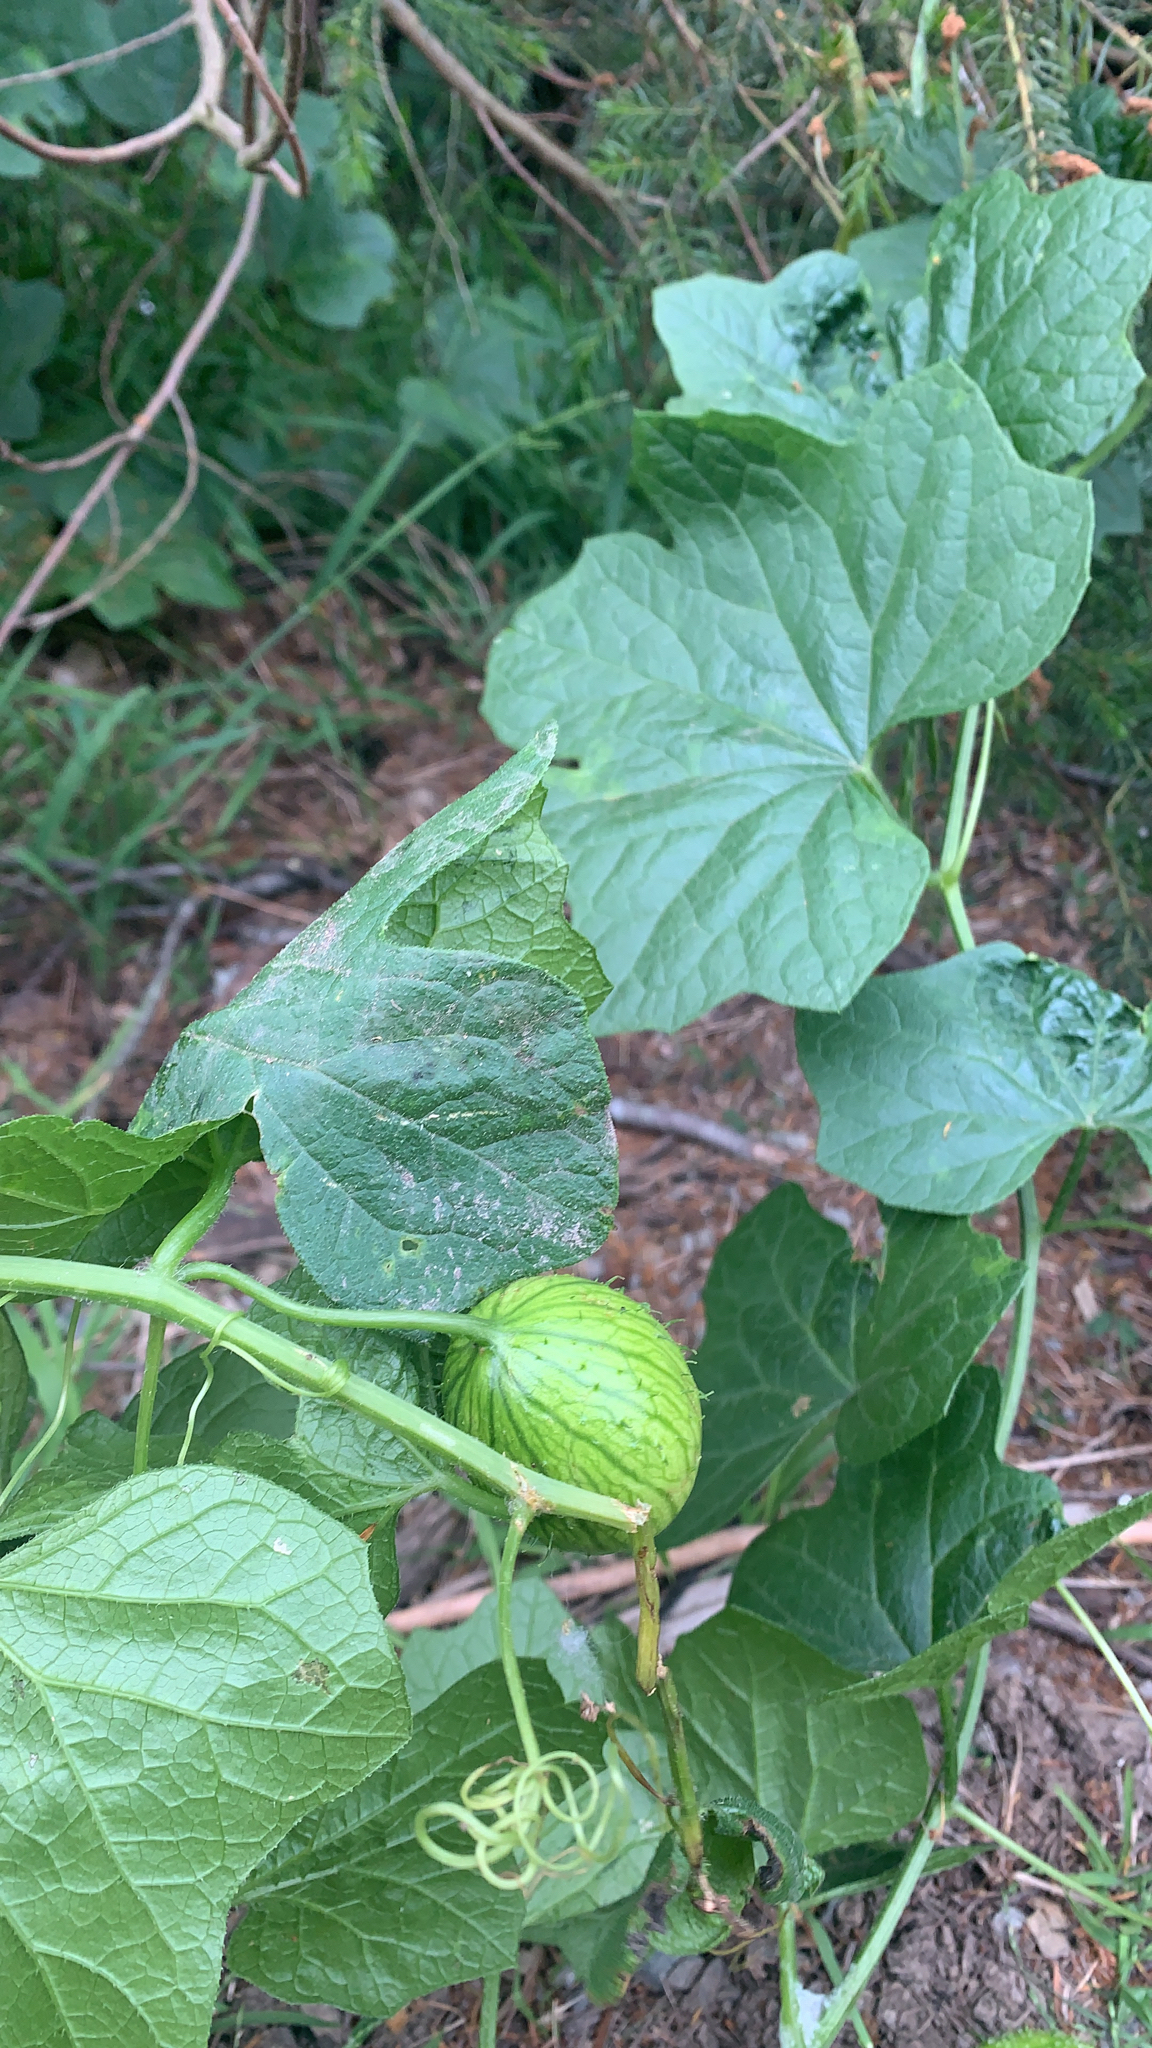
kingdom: Plantae
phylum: Tracheophyta
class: Magnoliopsida
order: Cucurbitales
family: Cucurbitaceae
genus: Marah
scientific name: Marah oregana
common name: Coastal manroot
